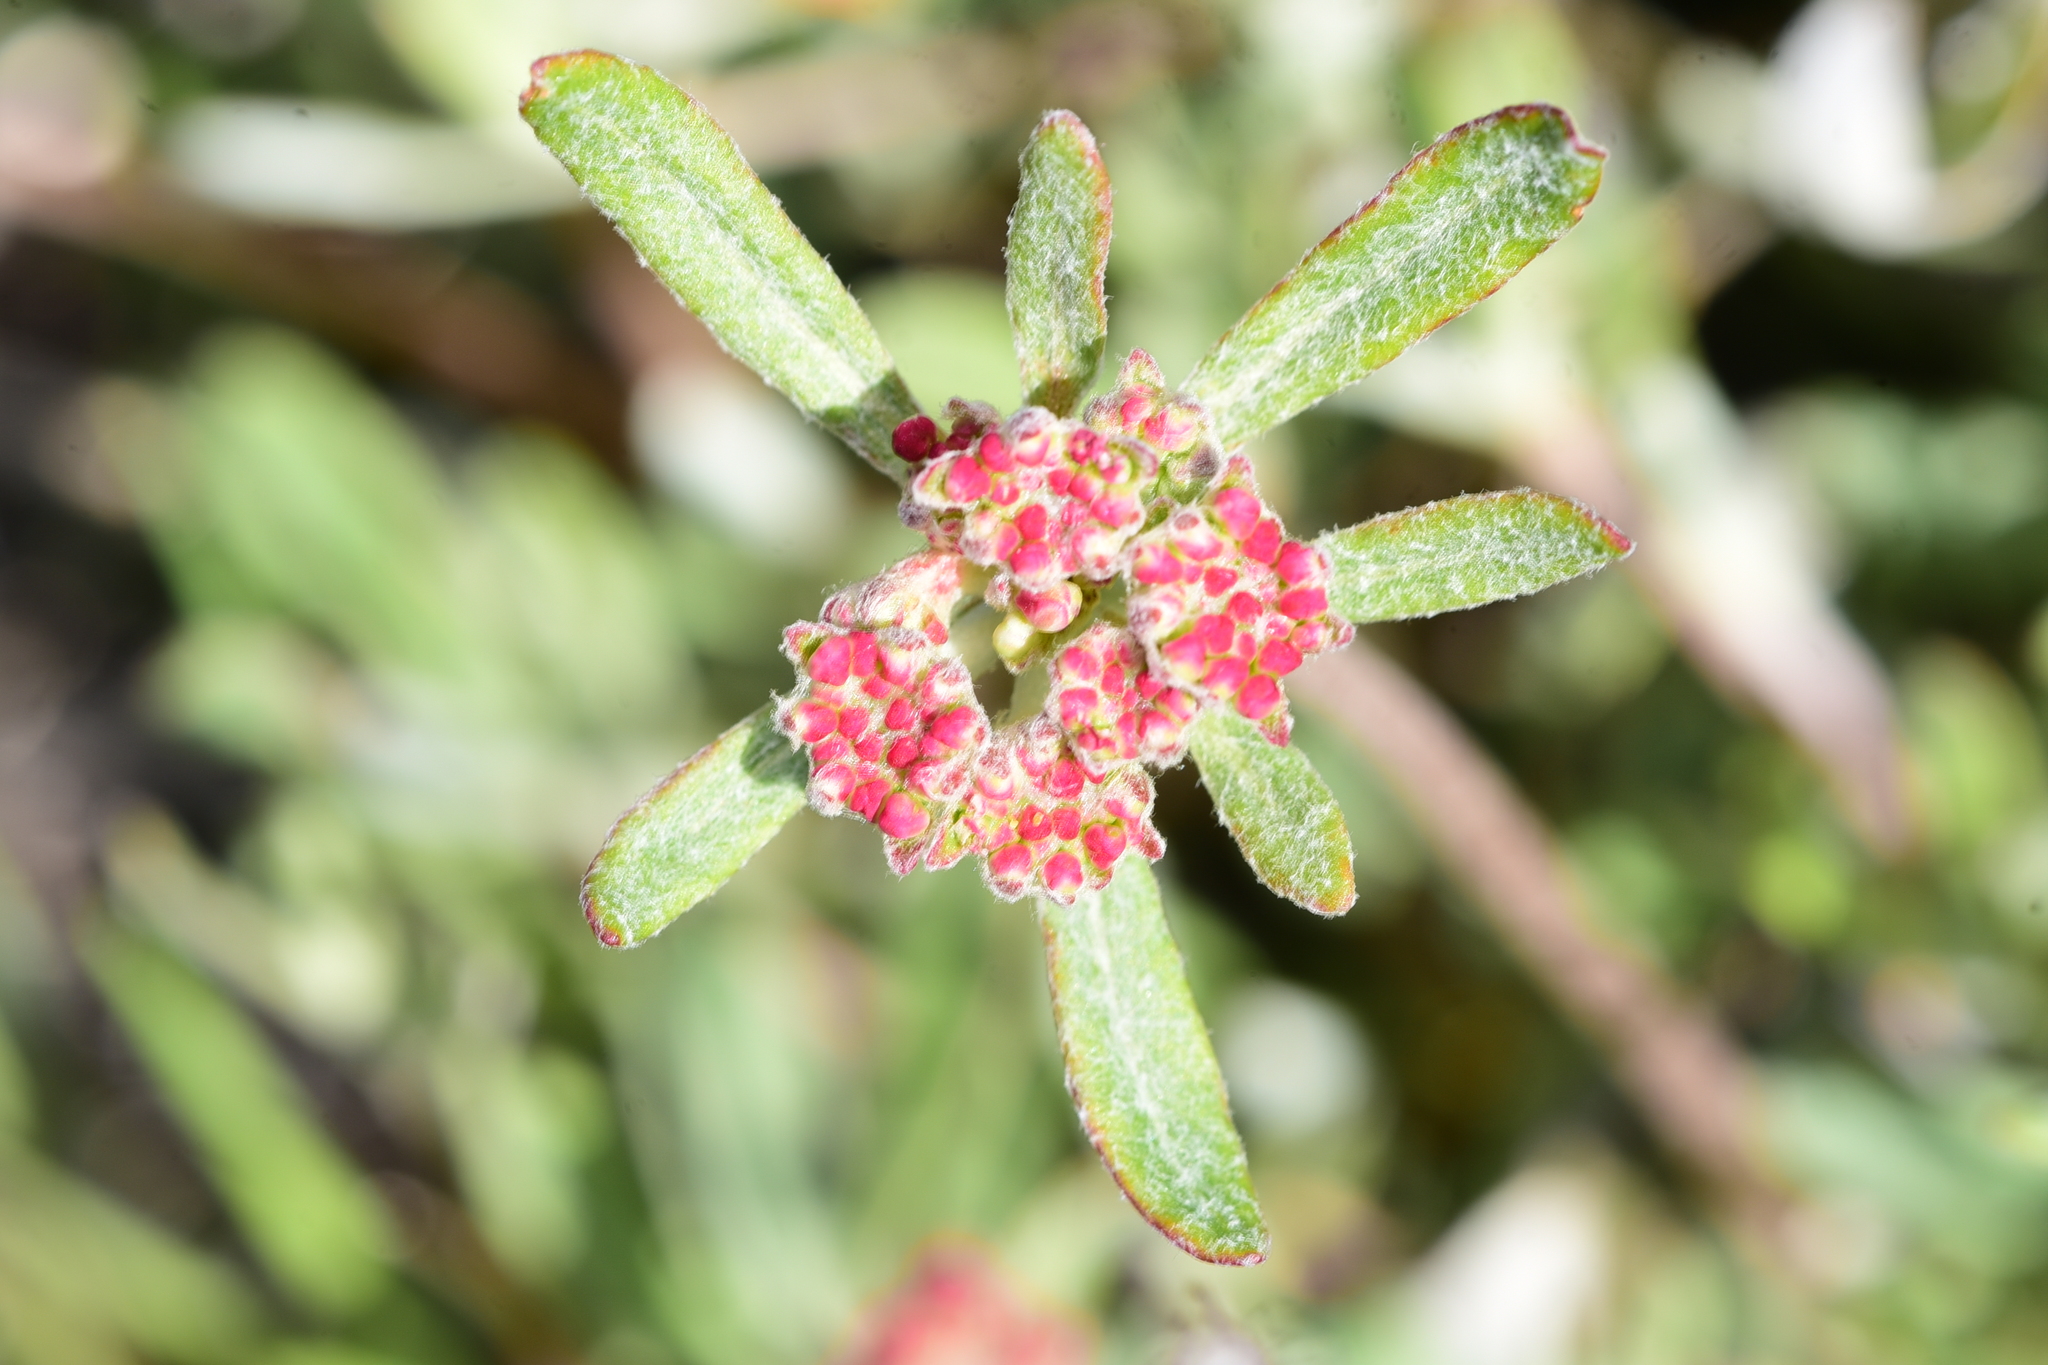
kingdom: Plantae
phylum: Tracheophyta
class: Magnoliopsida
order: Caryophyllales
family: Polygonaceae
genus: Eriogonum
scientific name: Eriogonum heracleoides
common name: Wyeth's buckwheat
